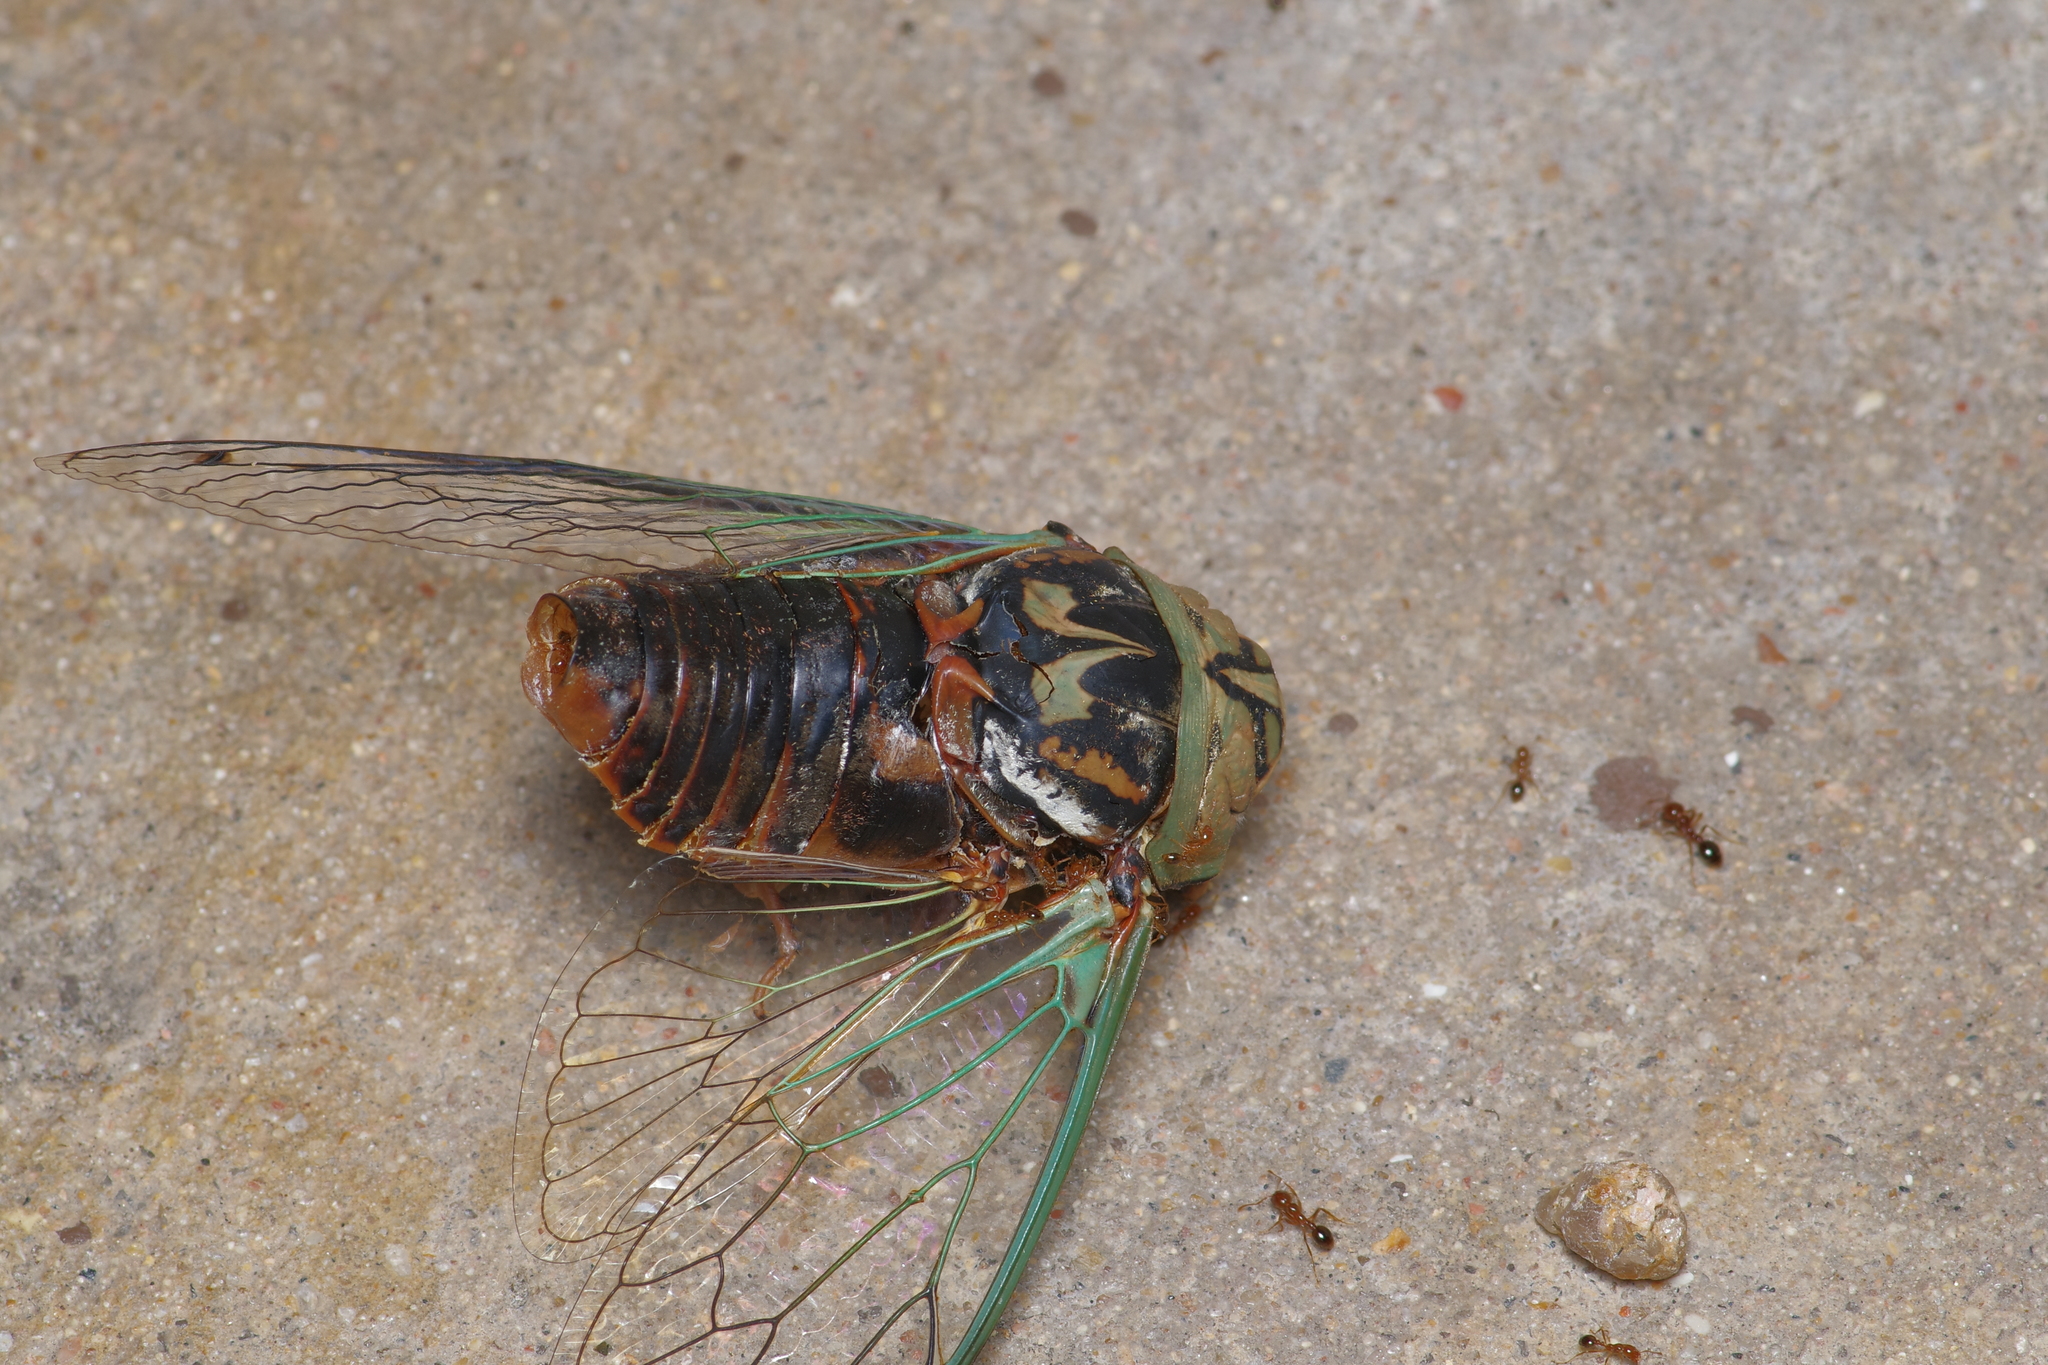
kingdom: Animalia
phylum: Arthropoda
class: Insecta
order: Hemiptera
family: Cicadidae
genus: Megatibicen
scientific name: Megatibicen resh
